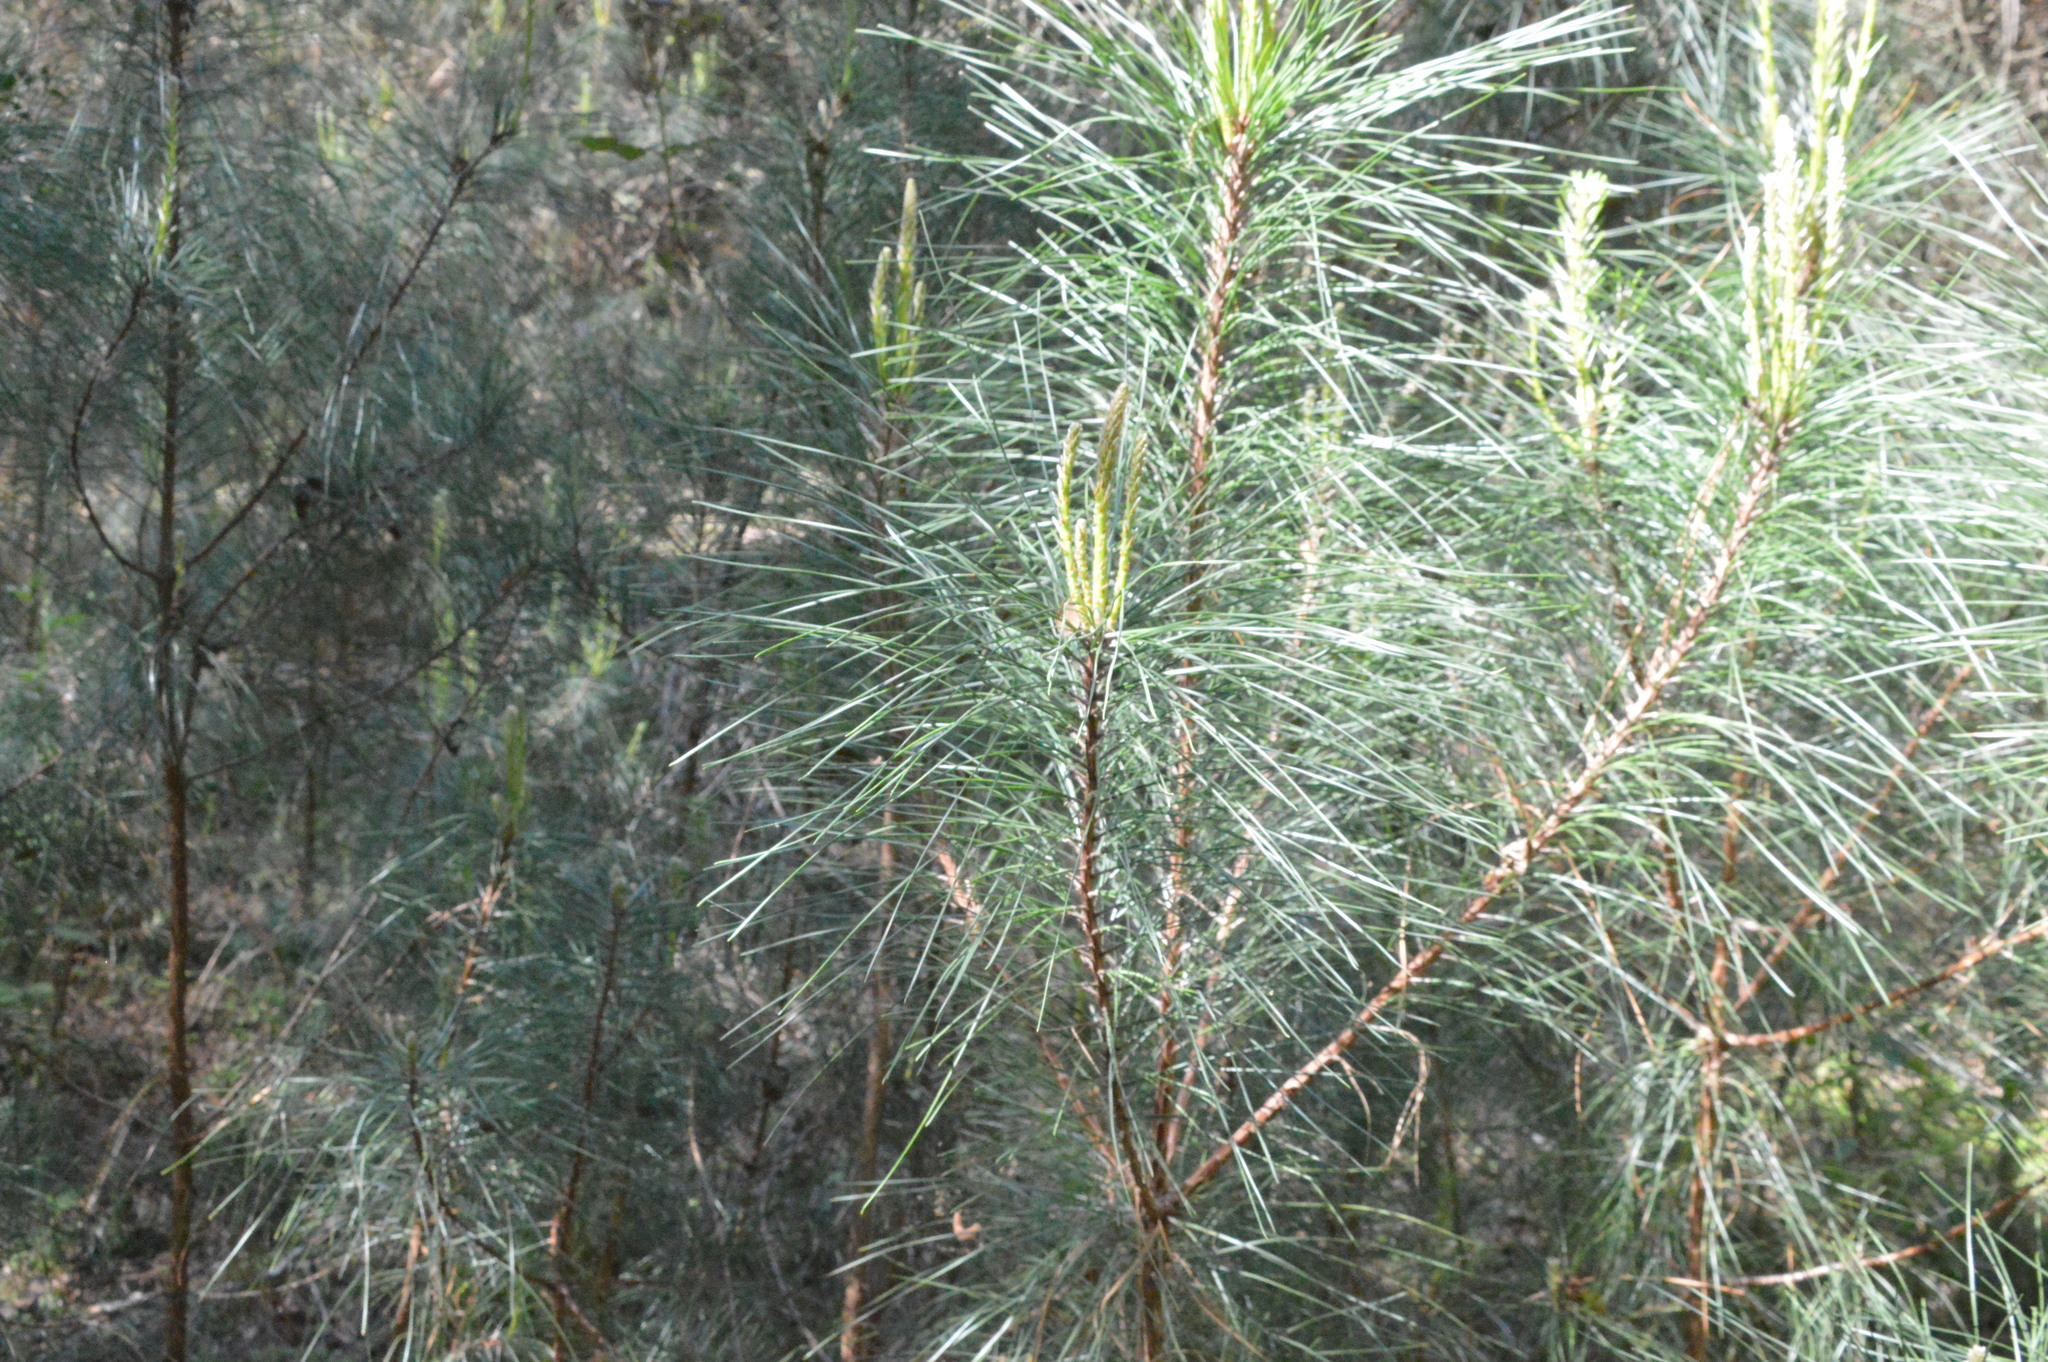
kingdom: Plantae
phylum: Tracheophyta
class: Pinopsida
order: Pinales
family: Pinaceae
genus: Pinus
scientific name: Pinus taeda
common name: Loblolly pine
